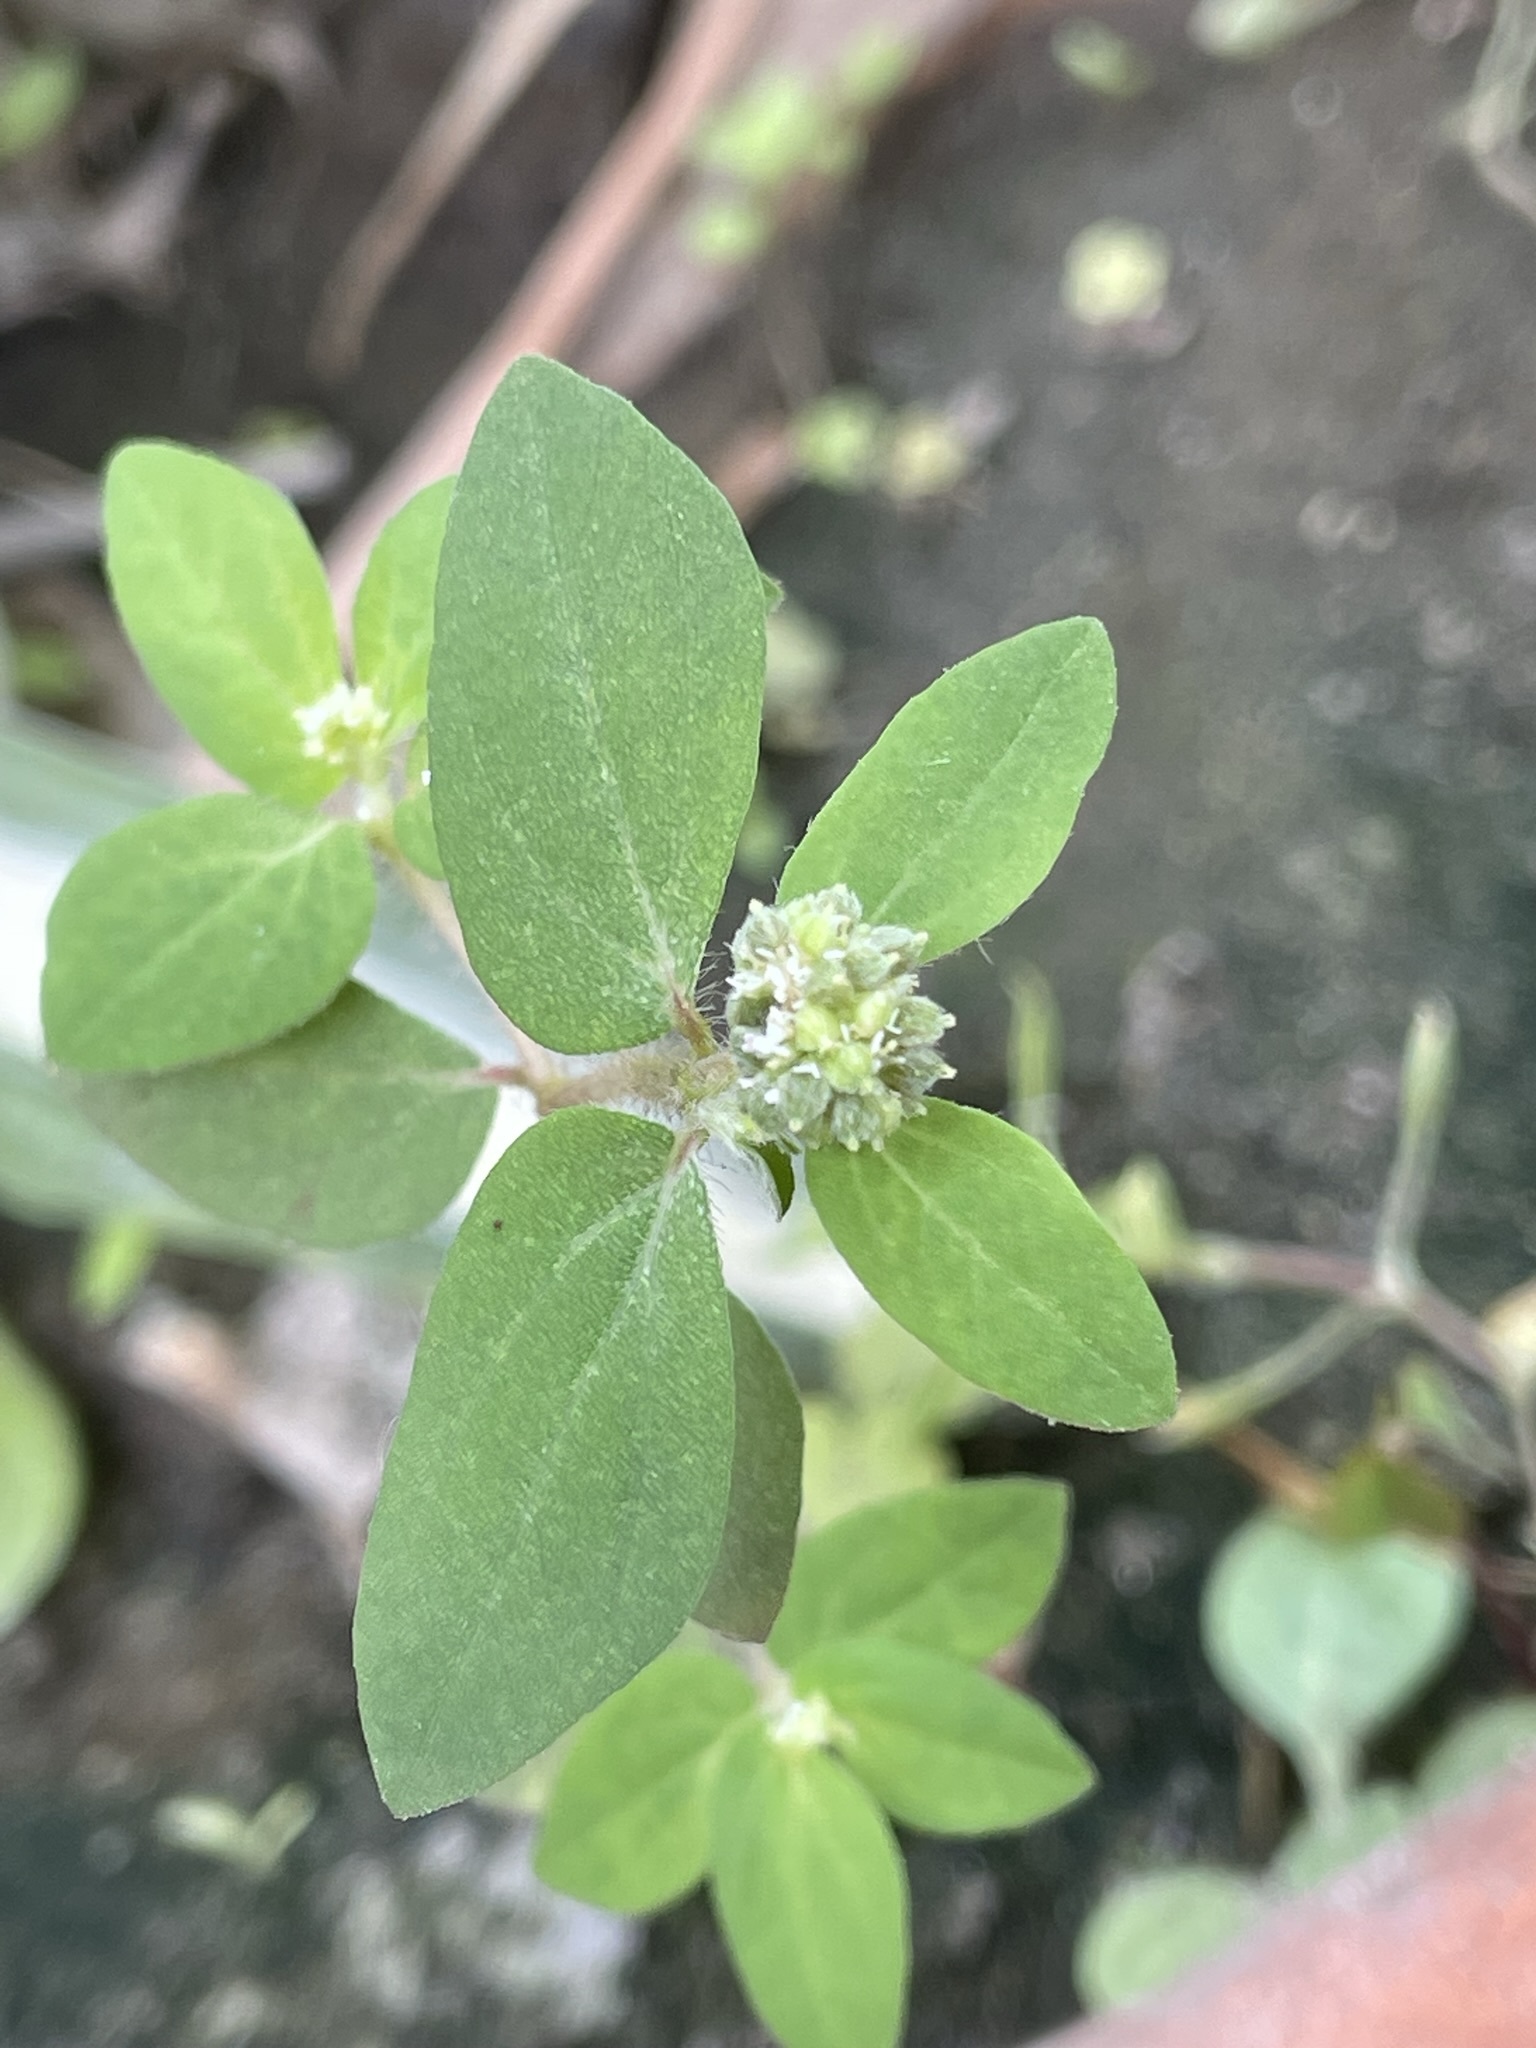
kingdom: Plantae
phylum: Tracheophyta
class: Magnoliopsida
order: Malpighiales
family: Euphorbiaceae
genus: Euphorbia
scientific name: Euphorbia ophthalmica
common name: Florida hammock sandmat
